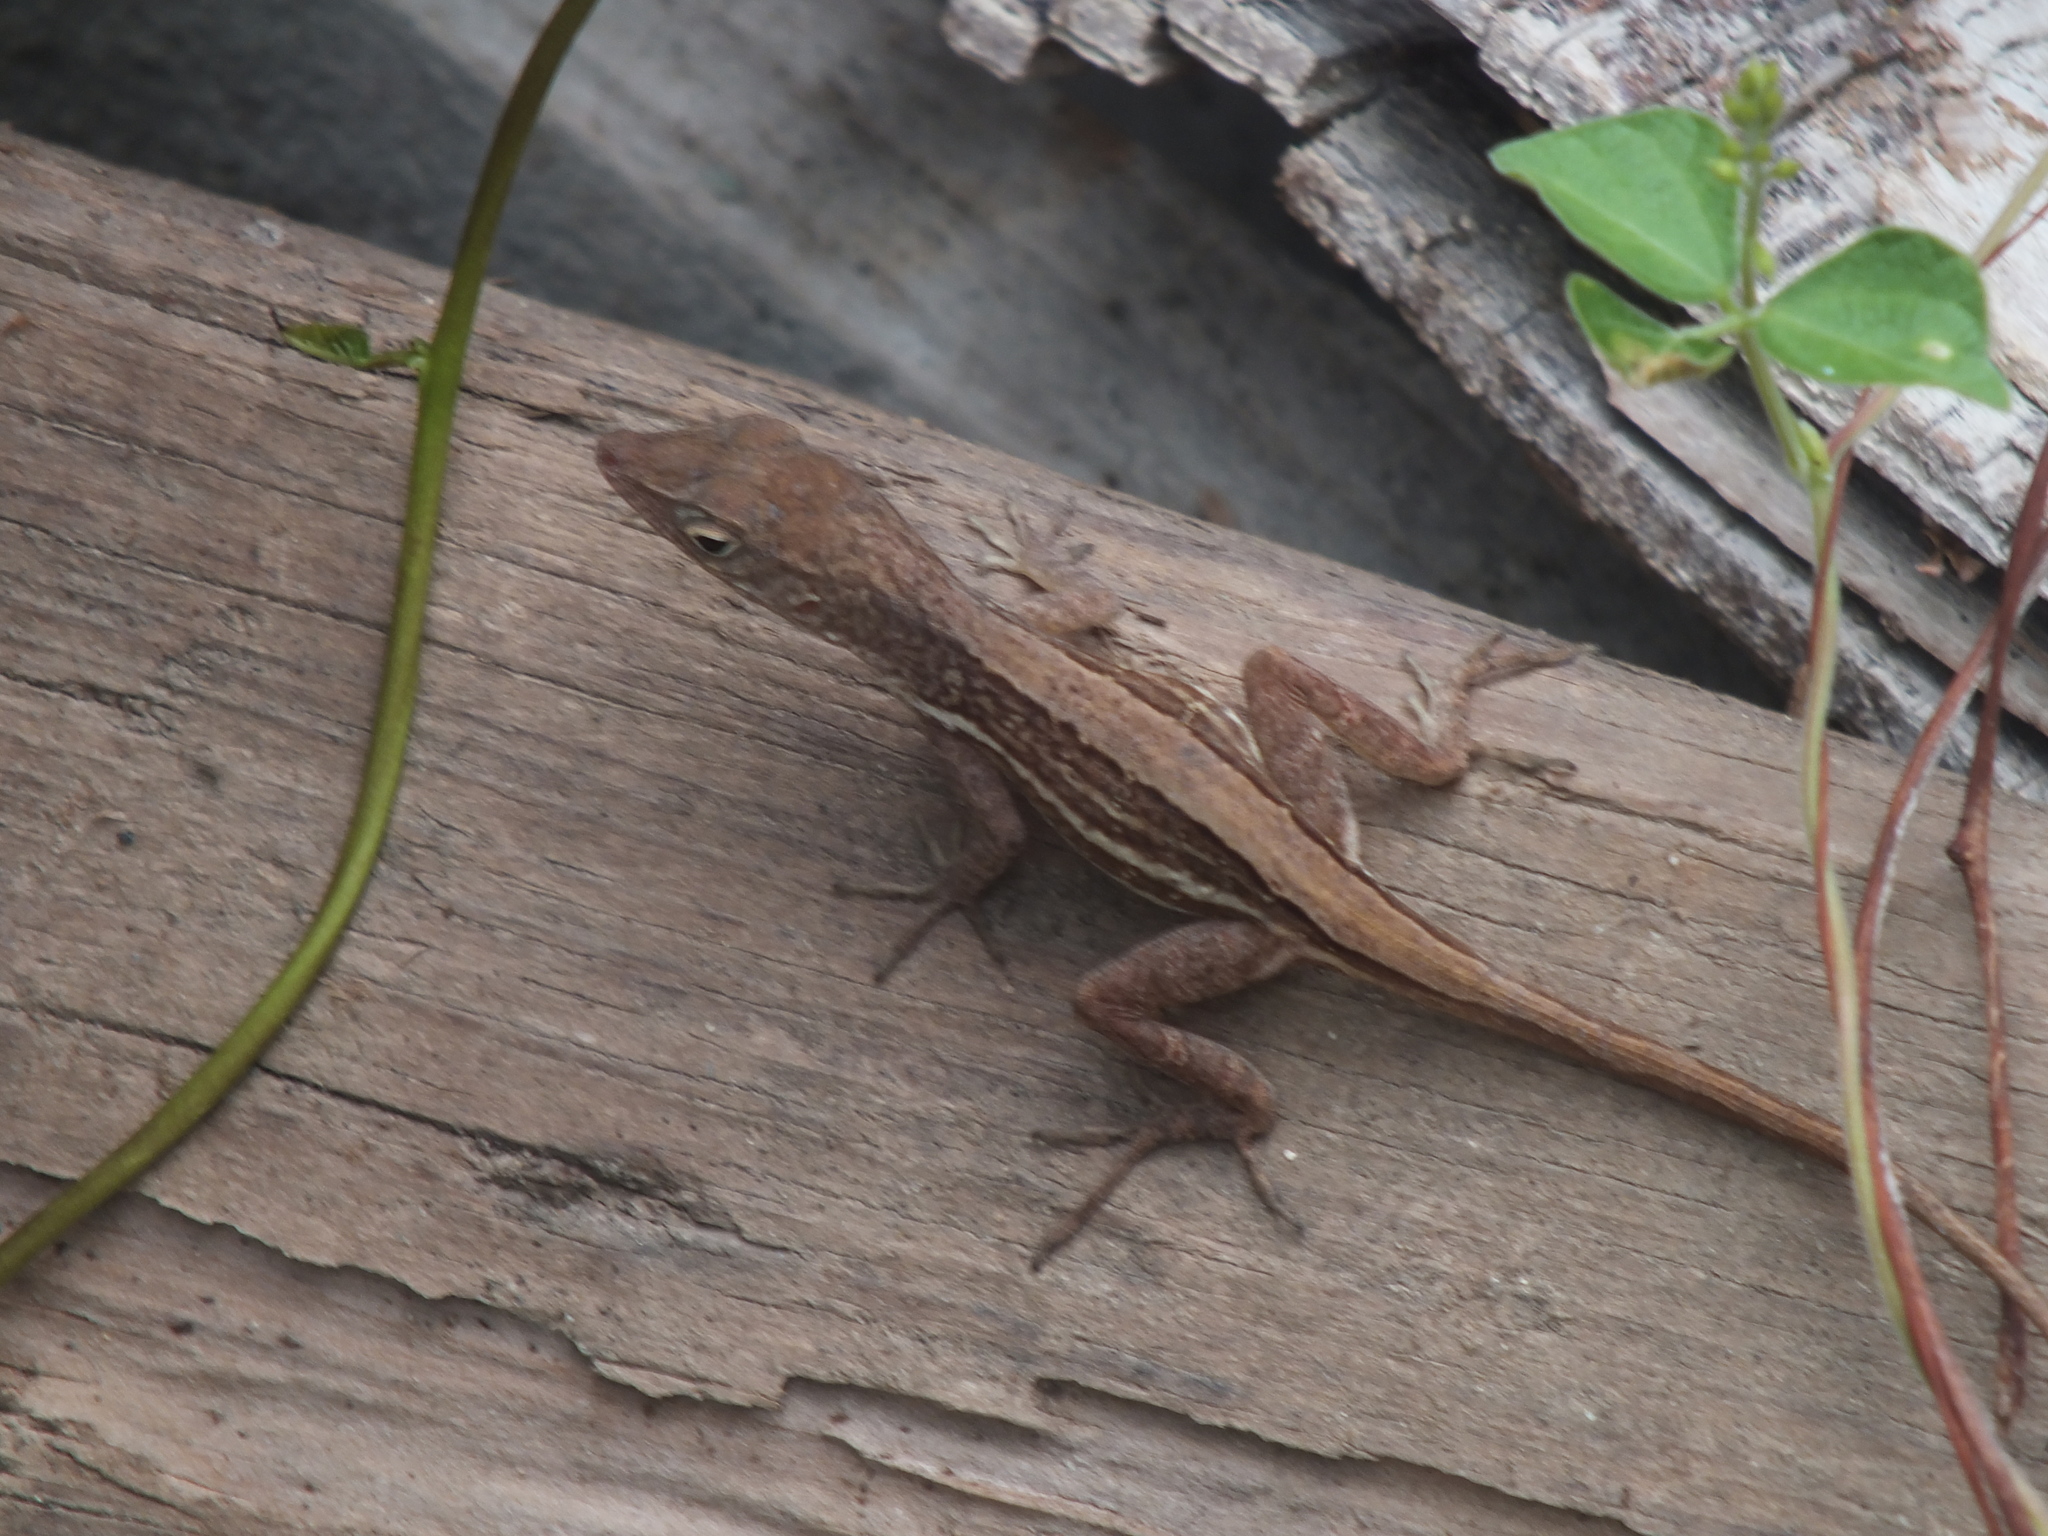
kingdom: Animalia
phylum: Chordata
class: Squamata
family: Dactyloidae
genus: Anolis
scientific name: Anolis lineatopus
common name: Stripefoot anole
